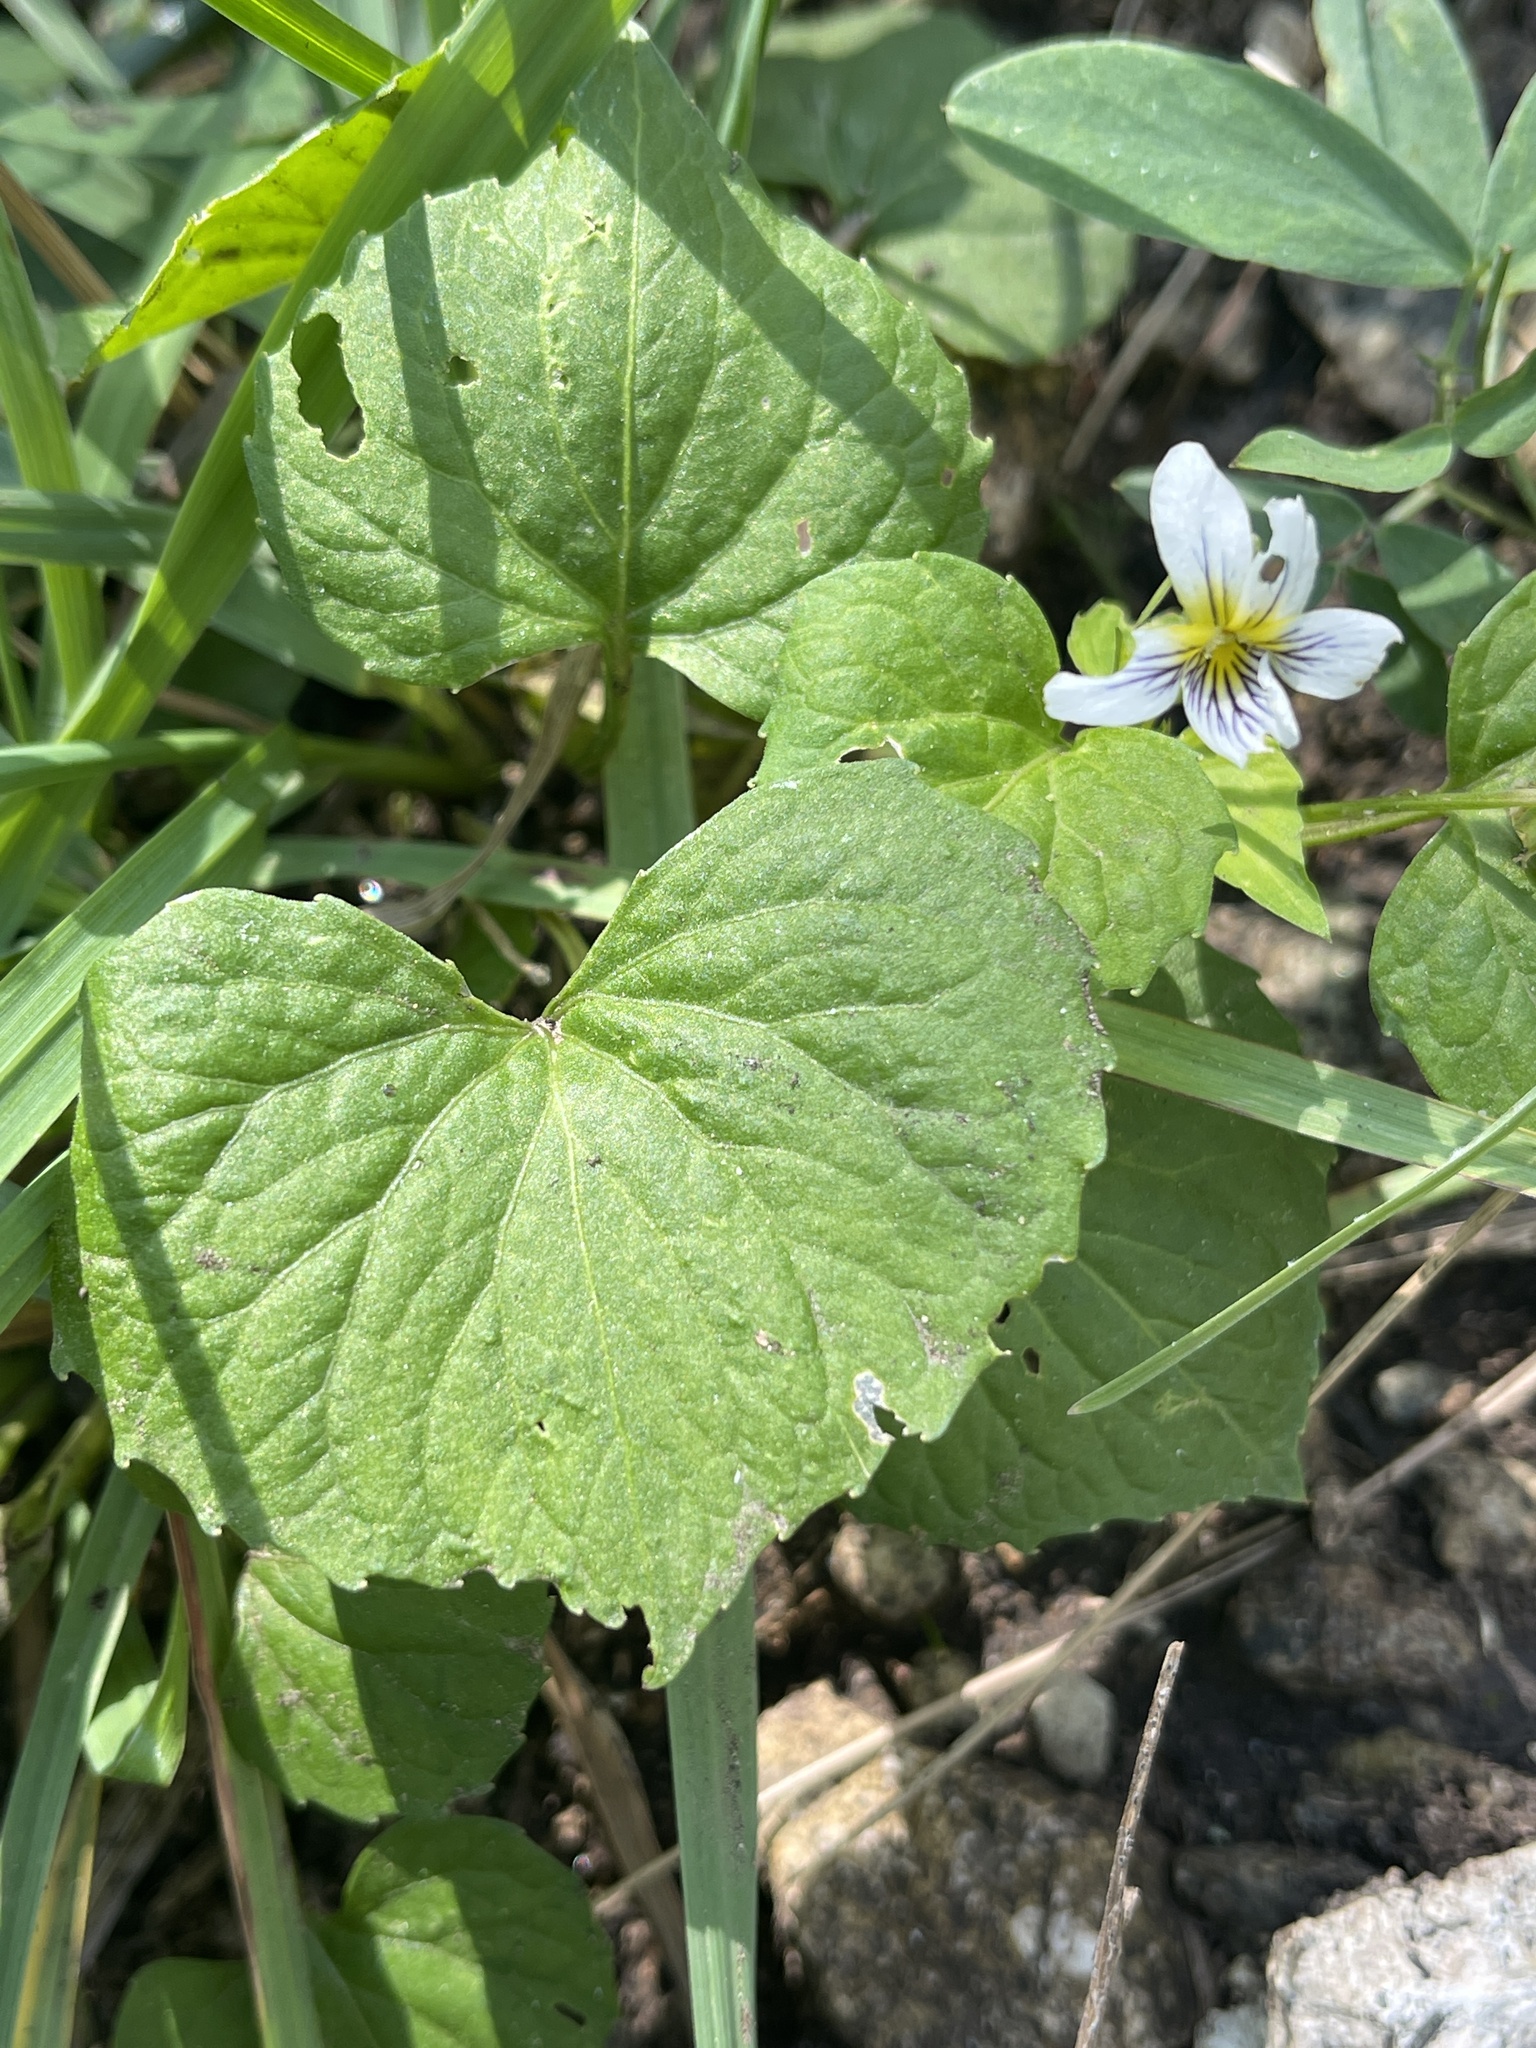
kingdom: Plantae
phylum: Tracheophyta
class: Magnoliopsida
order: Malpighiales
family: Violaceae
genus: Viola
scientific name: Viola canadensis
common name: Canada violet
